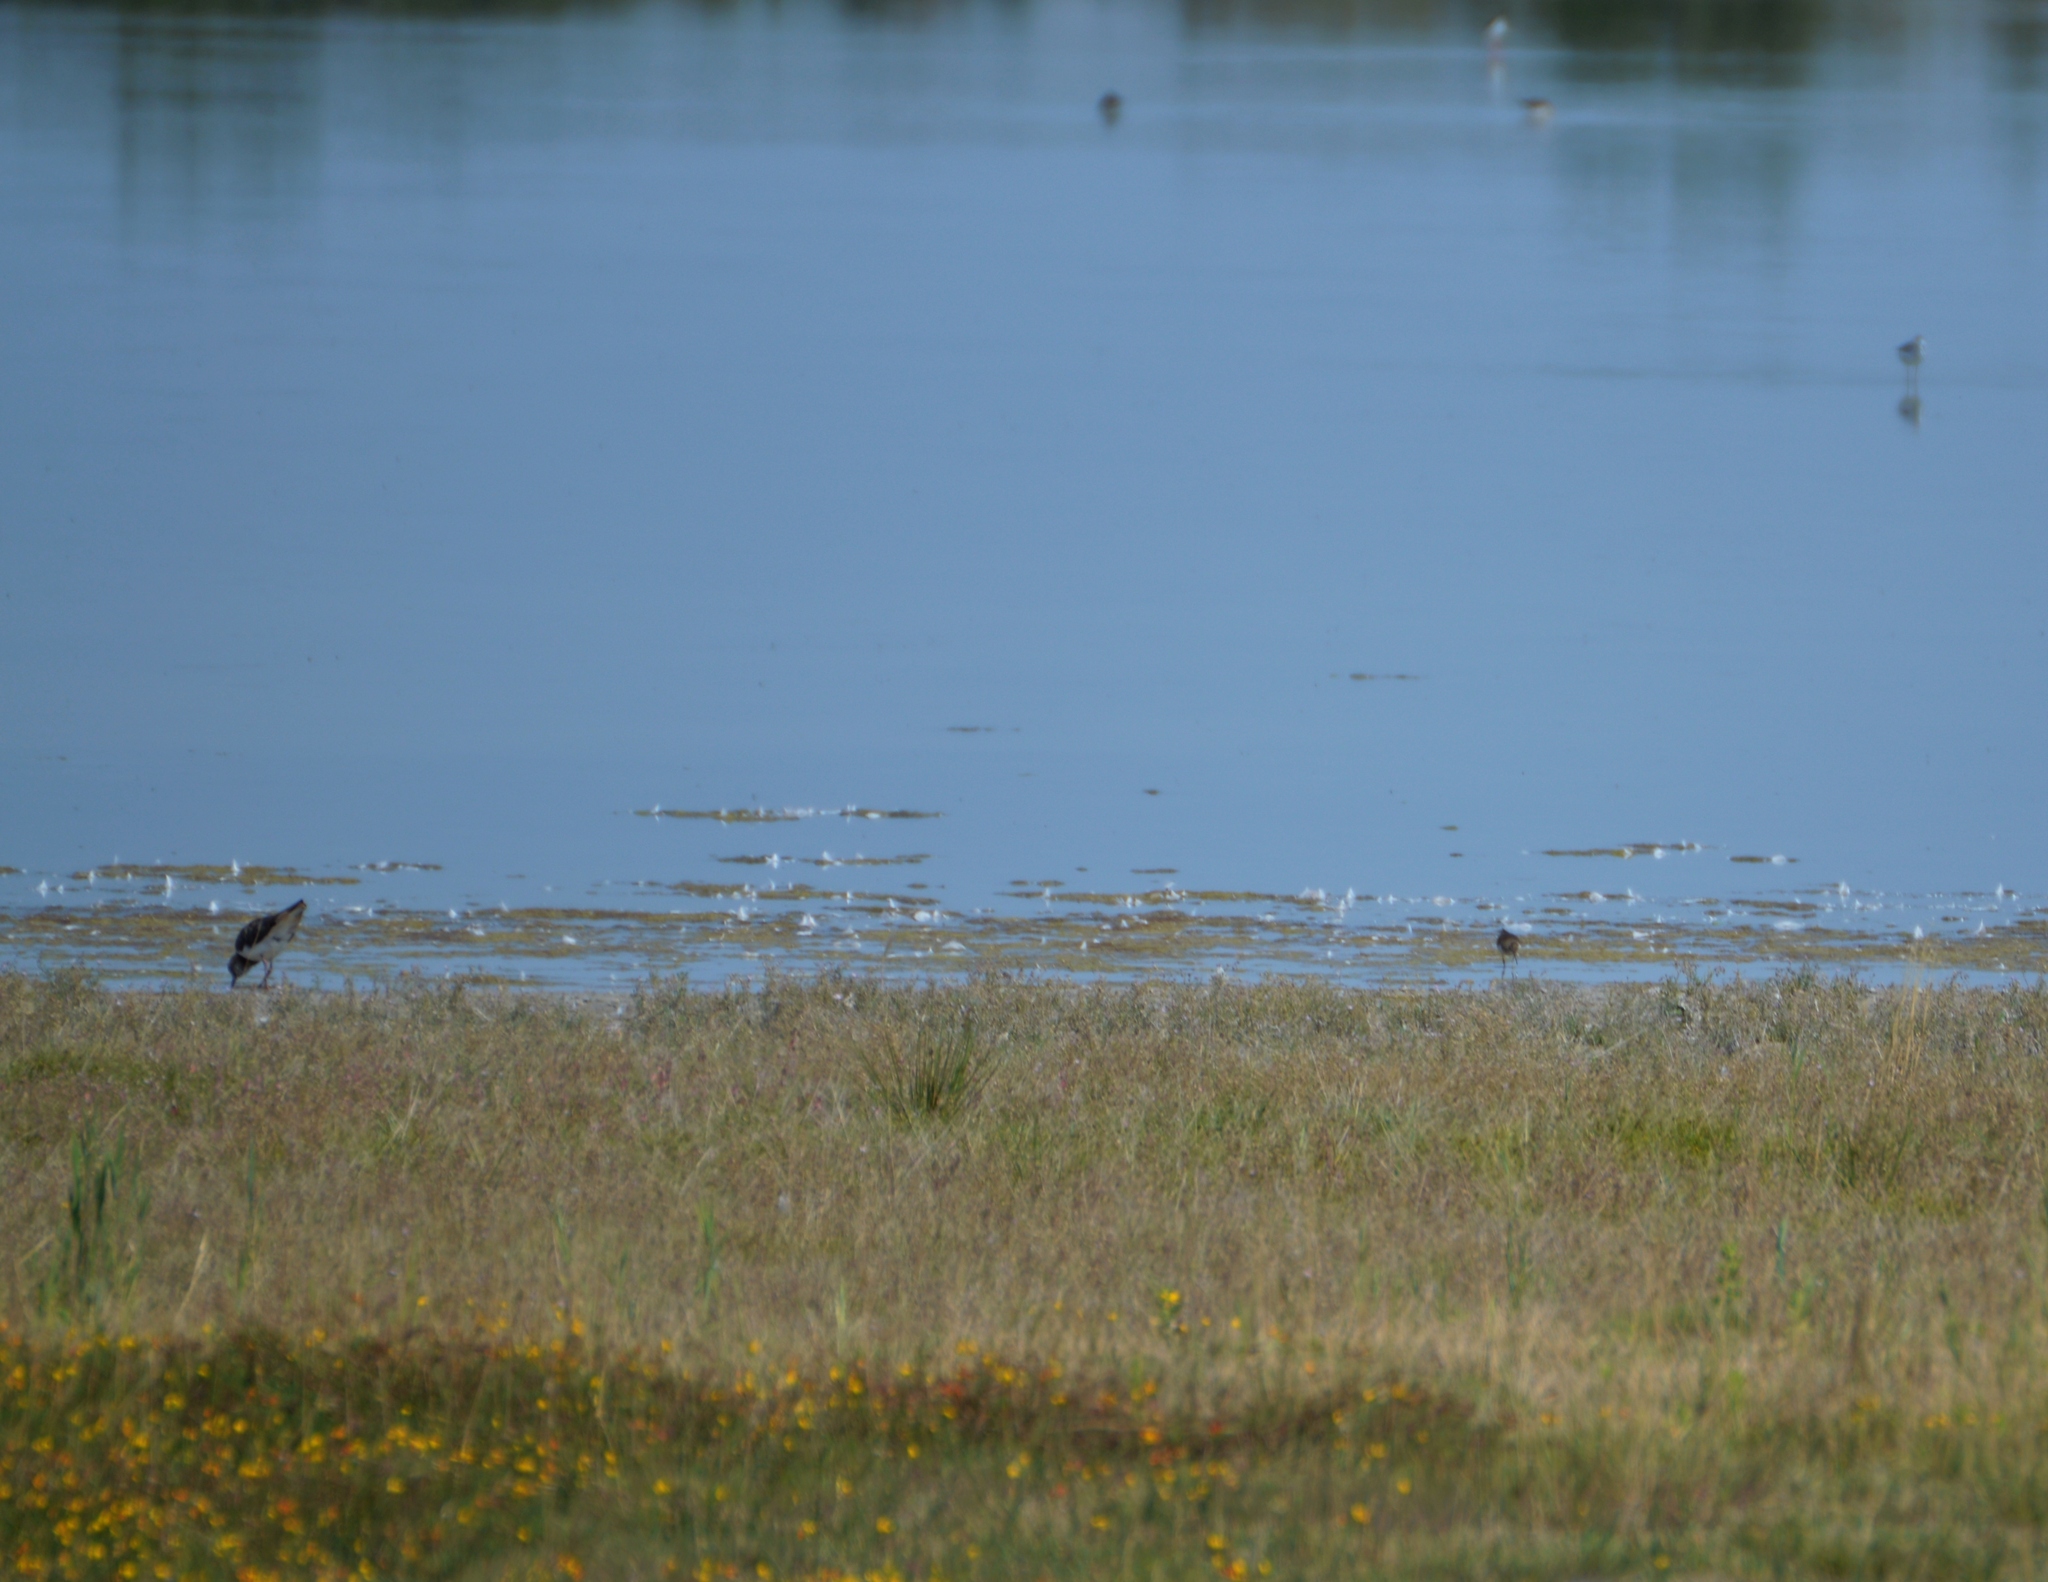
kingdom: Animalia
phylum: Chordata
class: Aves
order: Charadriiformes
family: Charadriidae
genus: Vanellus
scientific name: Vanellus vanellus
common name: Northern lapwing
